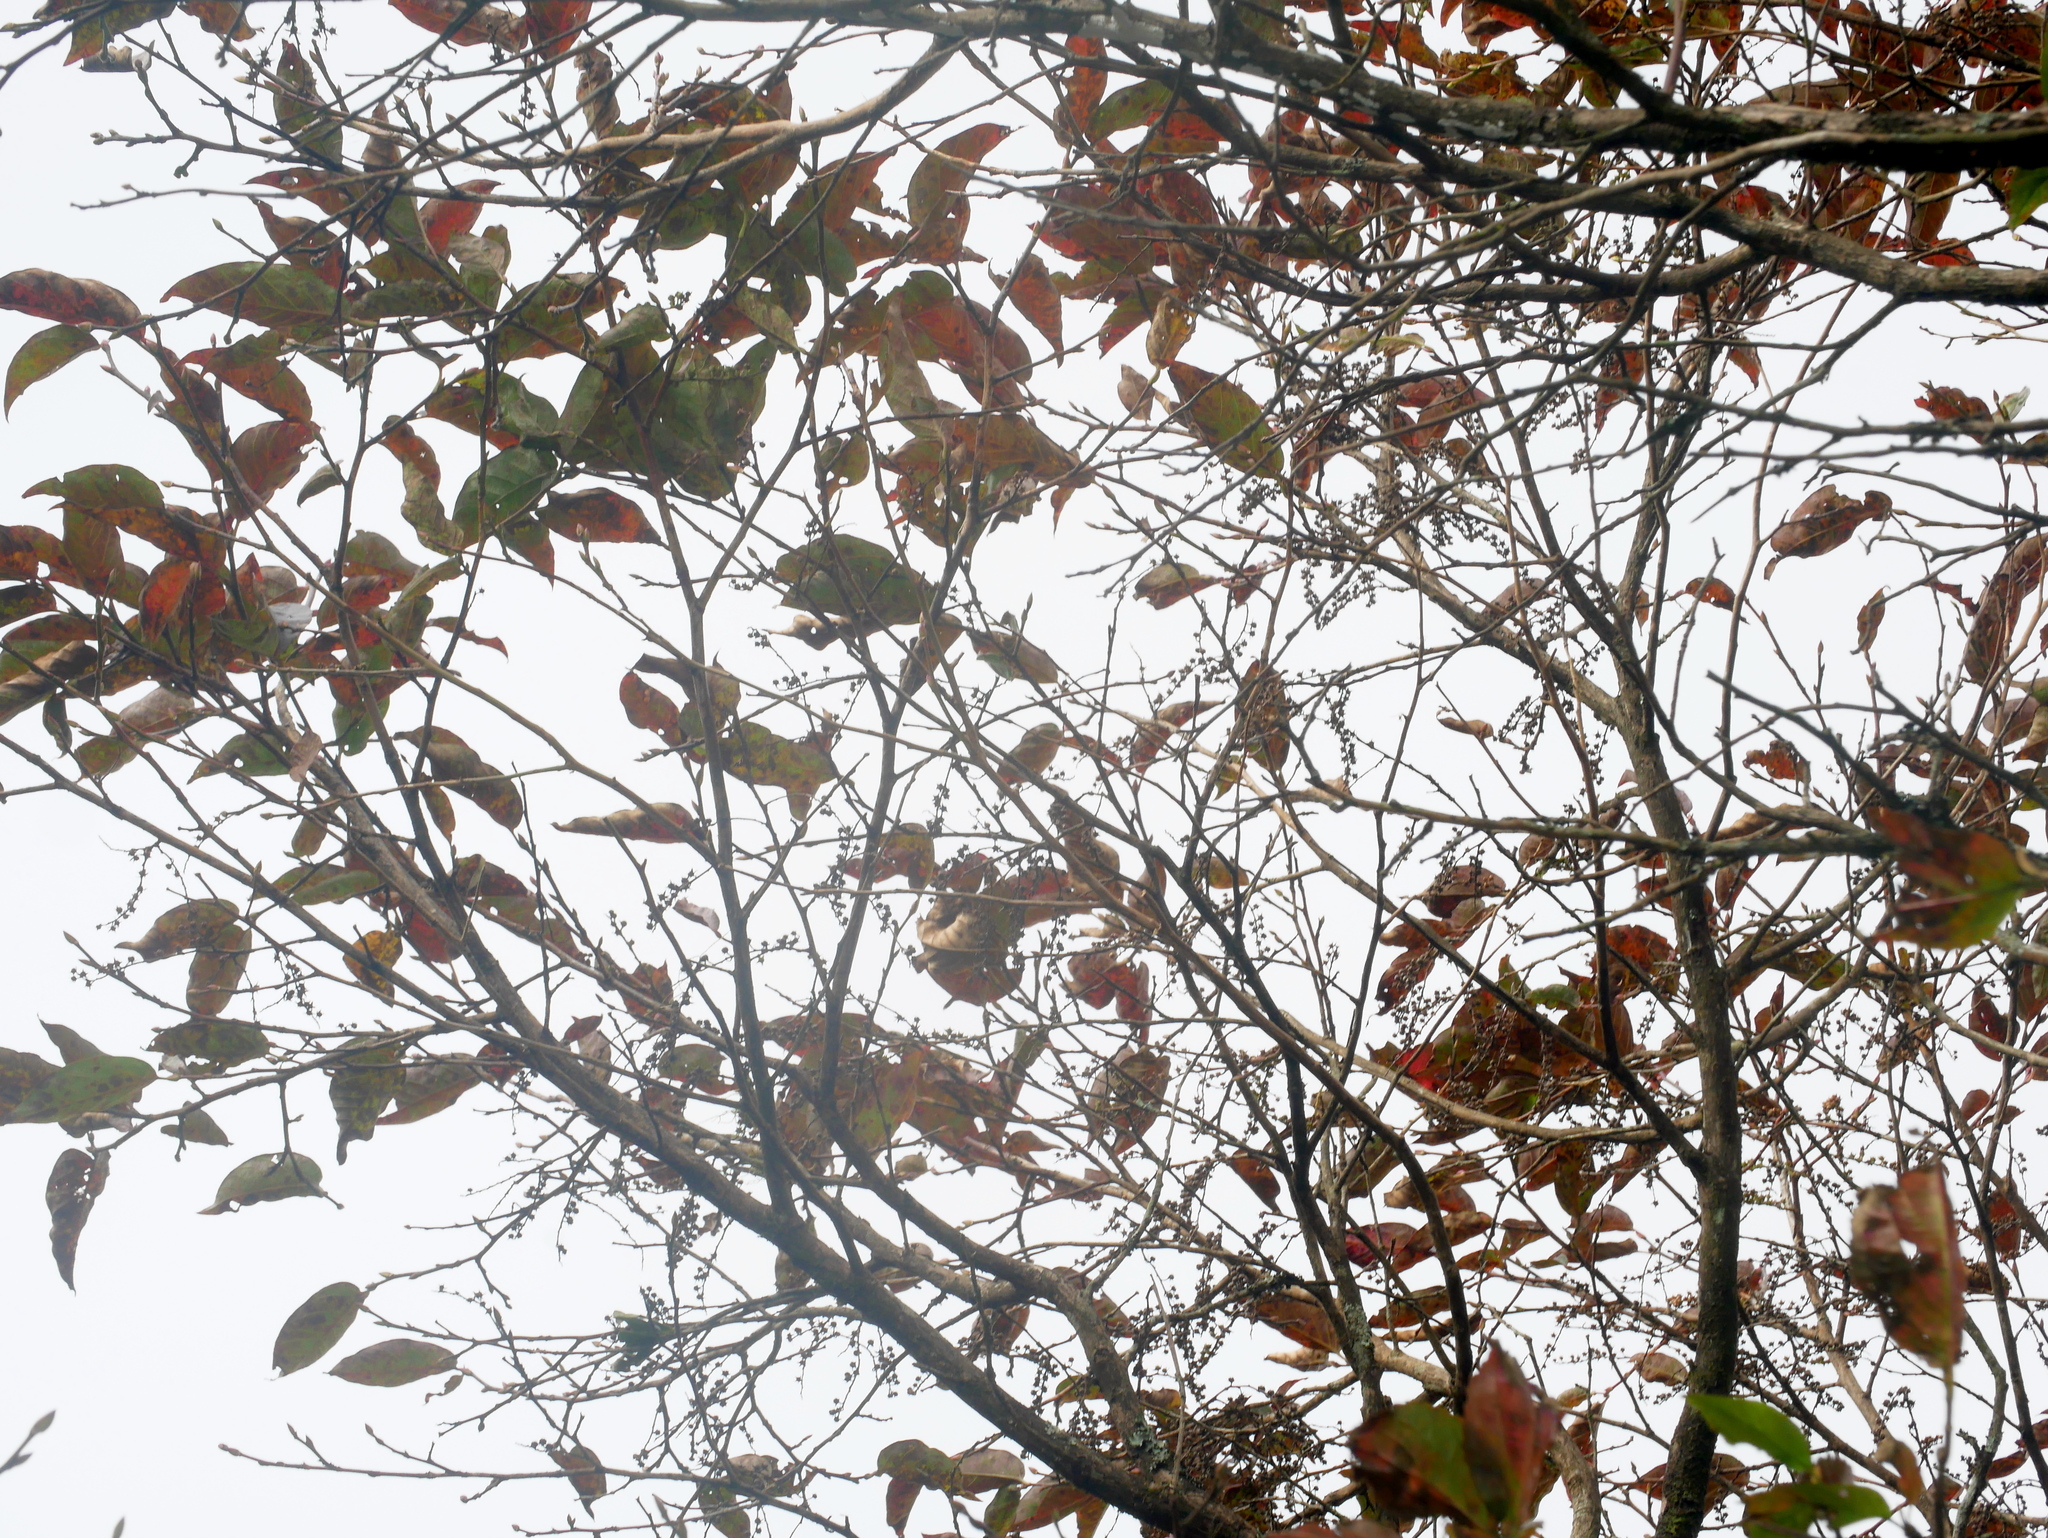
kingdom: Plantae
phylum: Tracheophyta
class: Magnoliopsida
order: Ericales
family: Ericaceae
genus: Lyonia
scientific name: Lyonia ovalifolia
